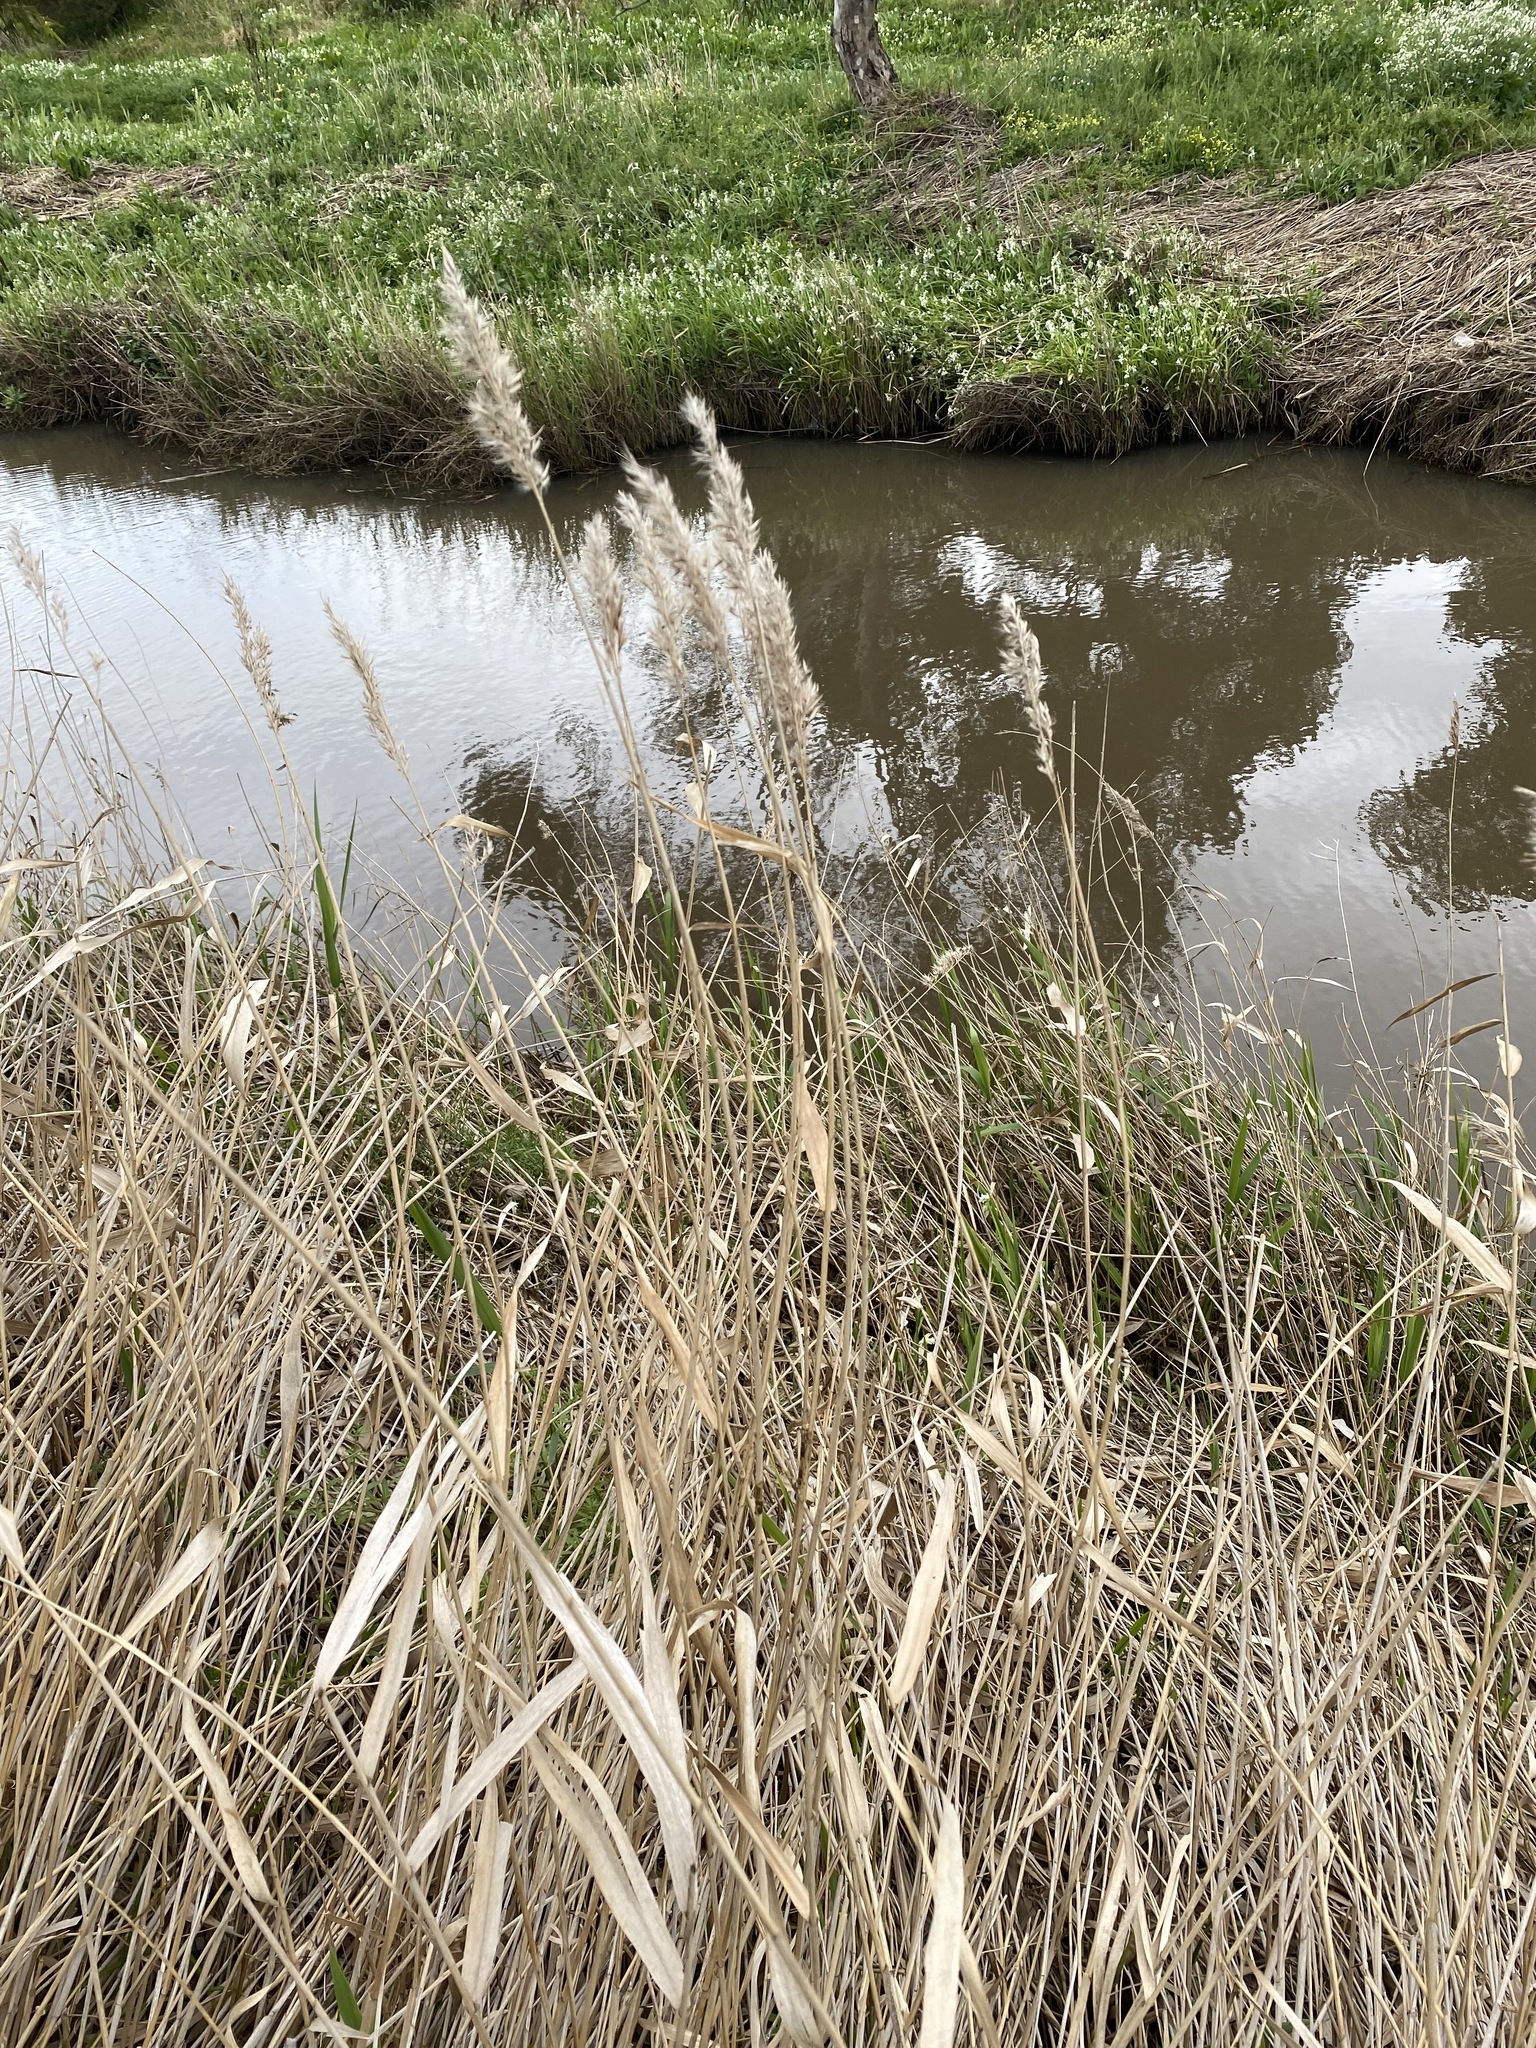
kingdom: Plantae
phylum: Tracheophyta
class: Liliopsida
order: Poales
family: Poaceae
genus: Phragmites
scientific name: Phragmites australis
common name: Common reed
